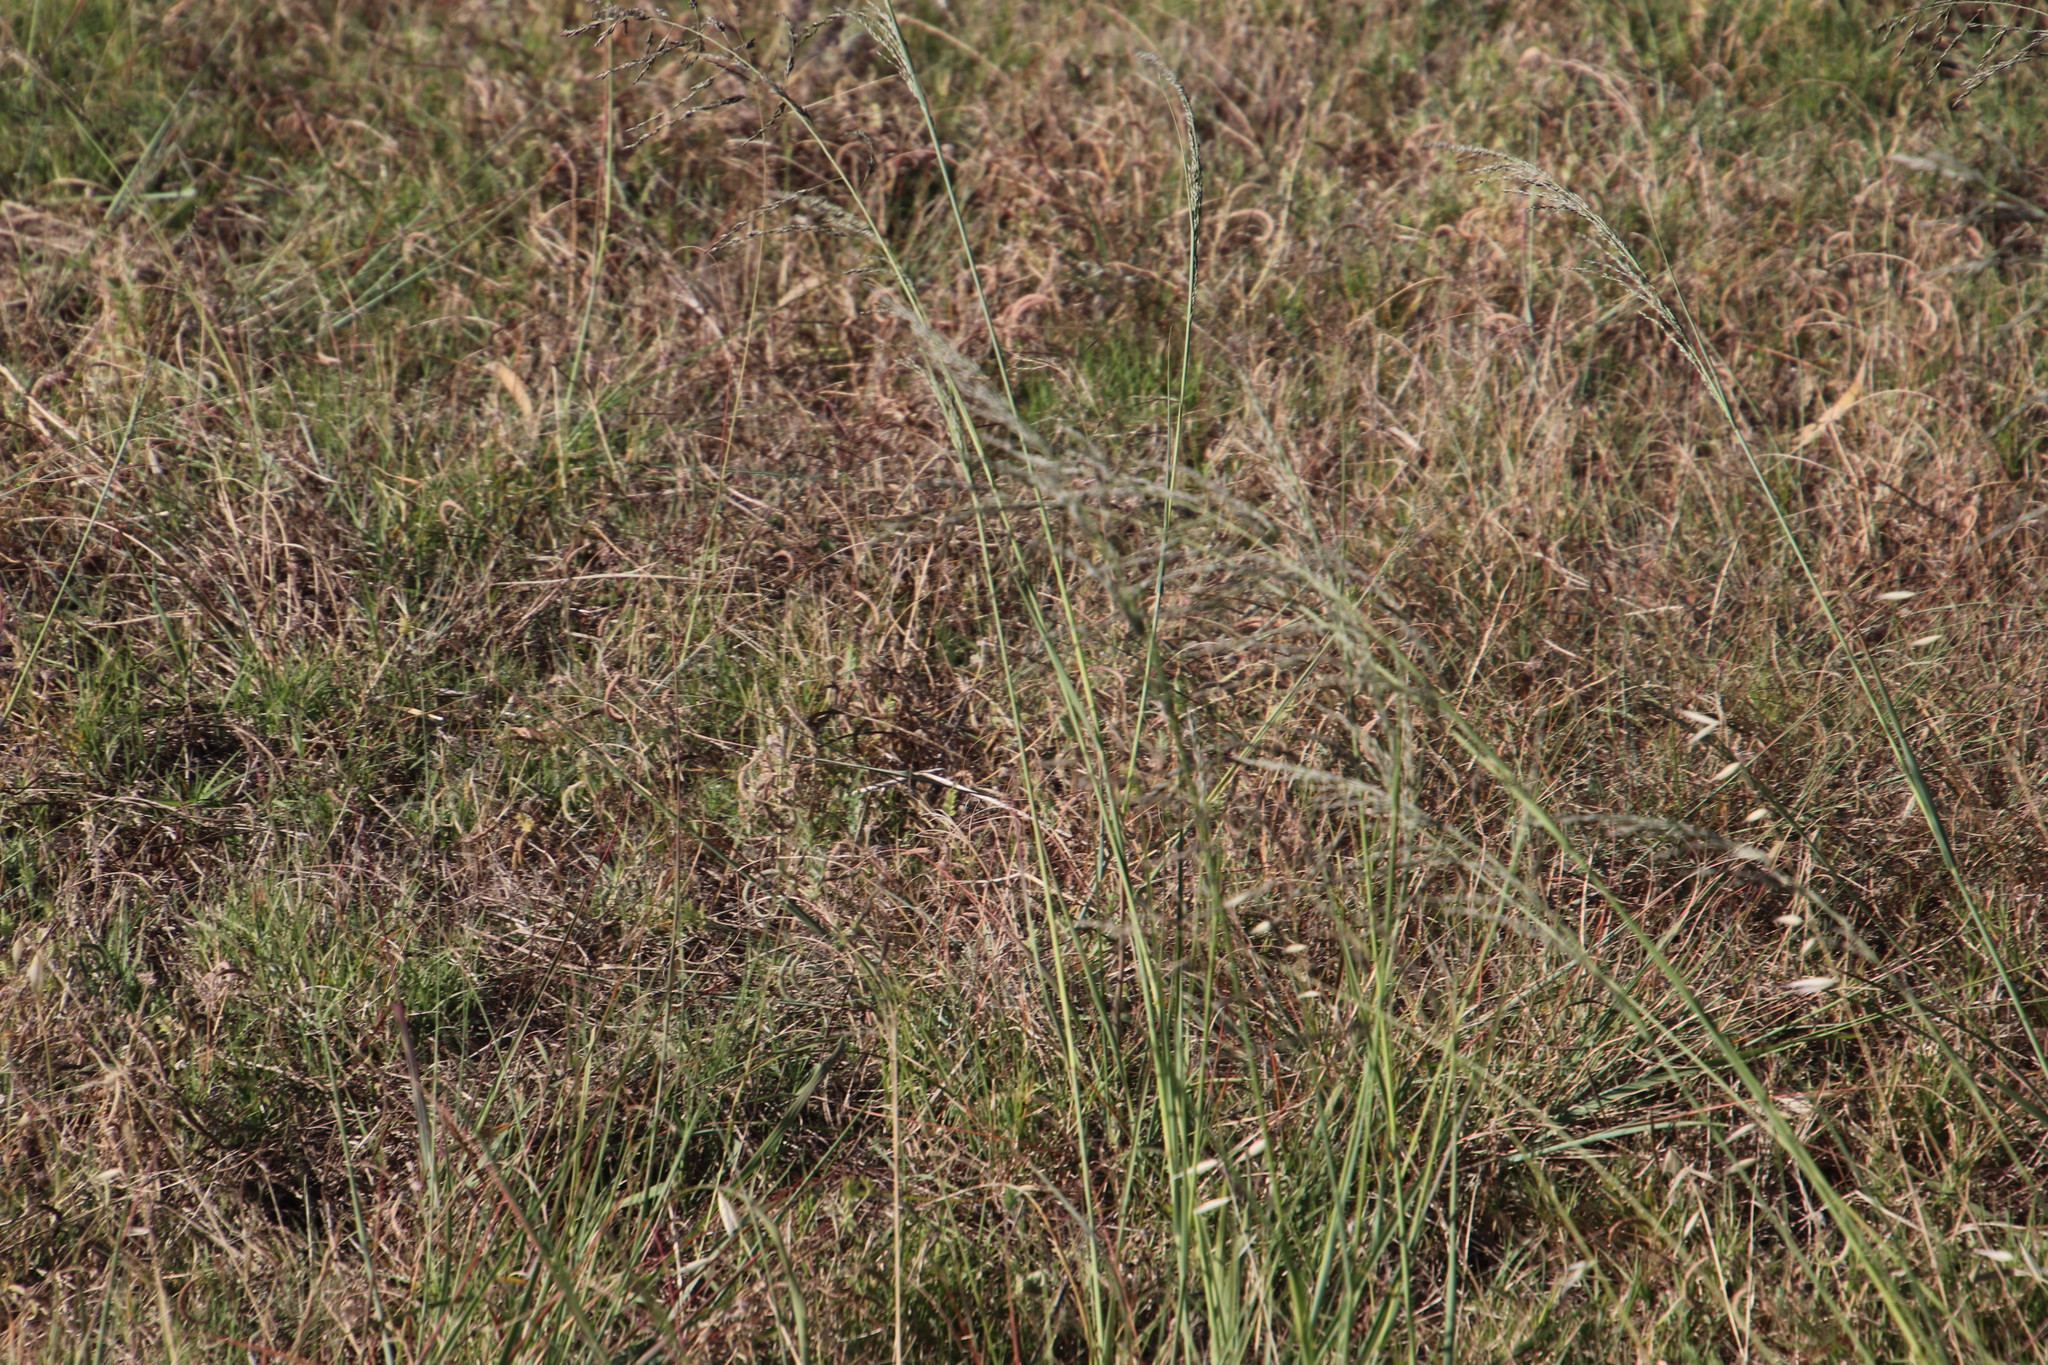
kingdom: Plantae
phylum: Tracheophyta
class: Liliopsida
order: Poales
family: Poaceae
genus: Eragrostis
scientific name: Eragrostis curvula
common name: African love-grass
